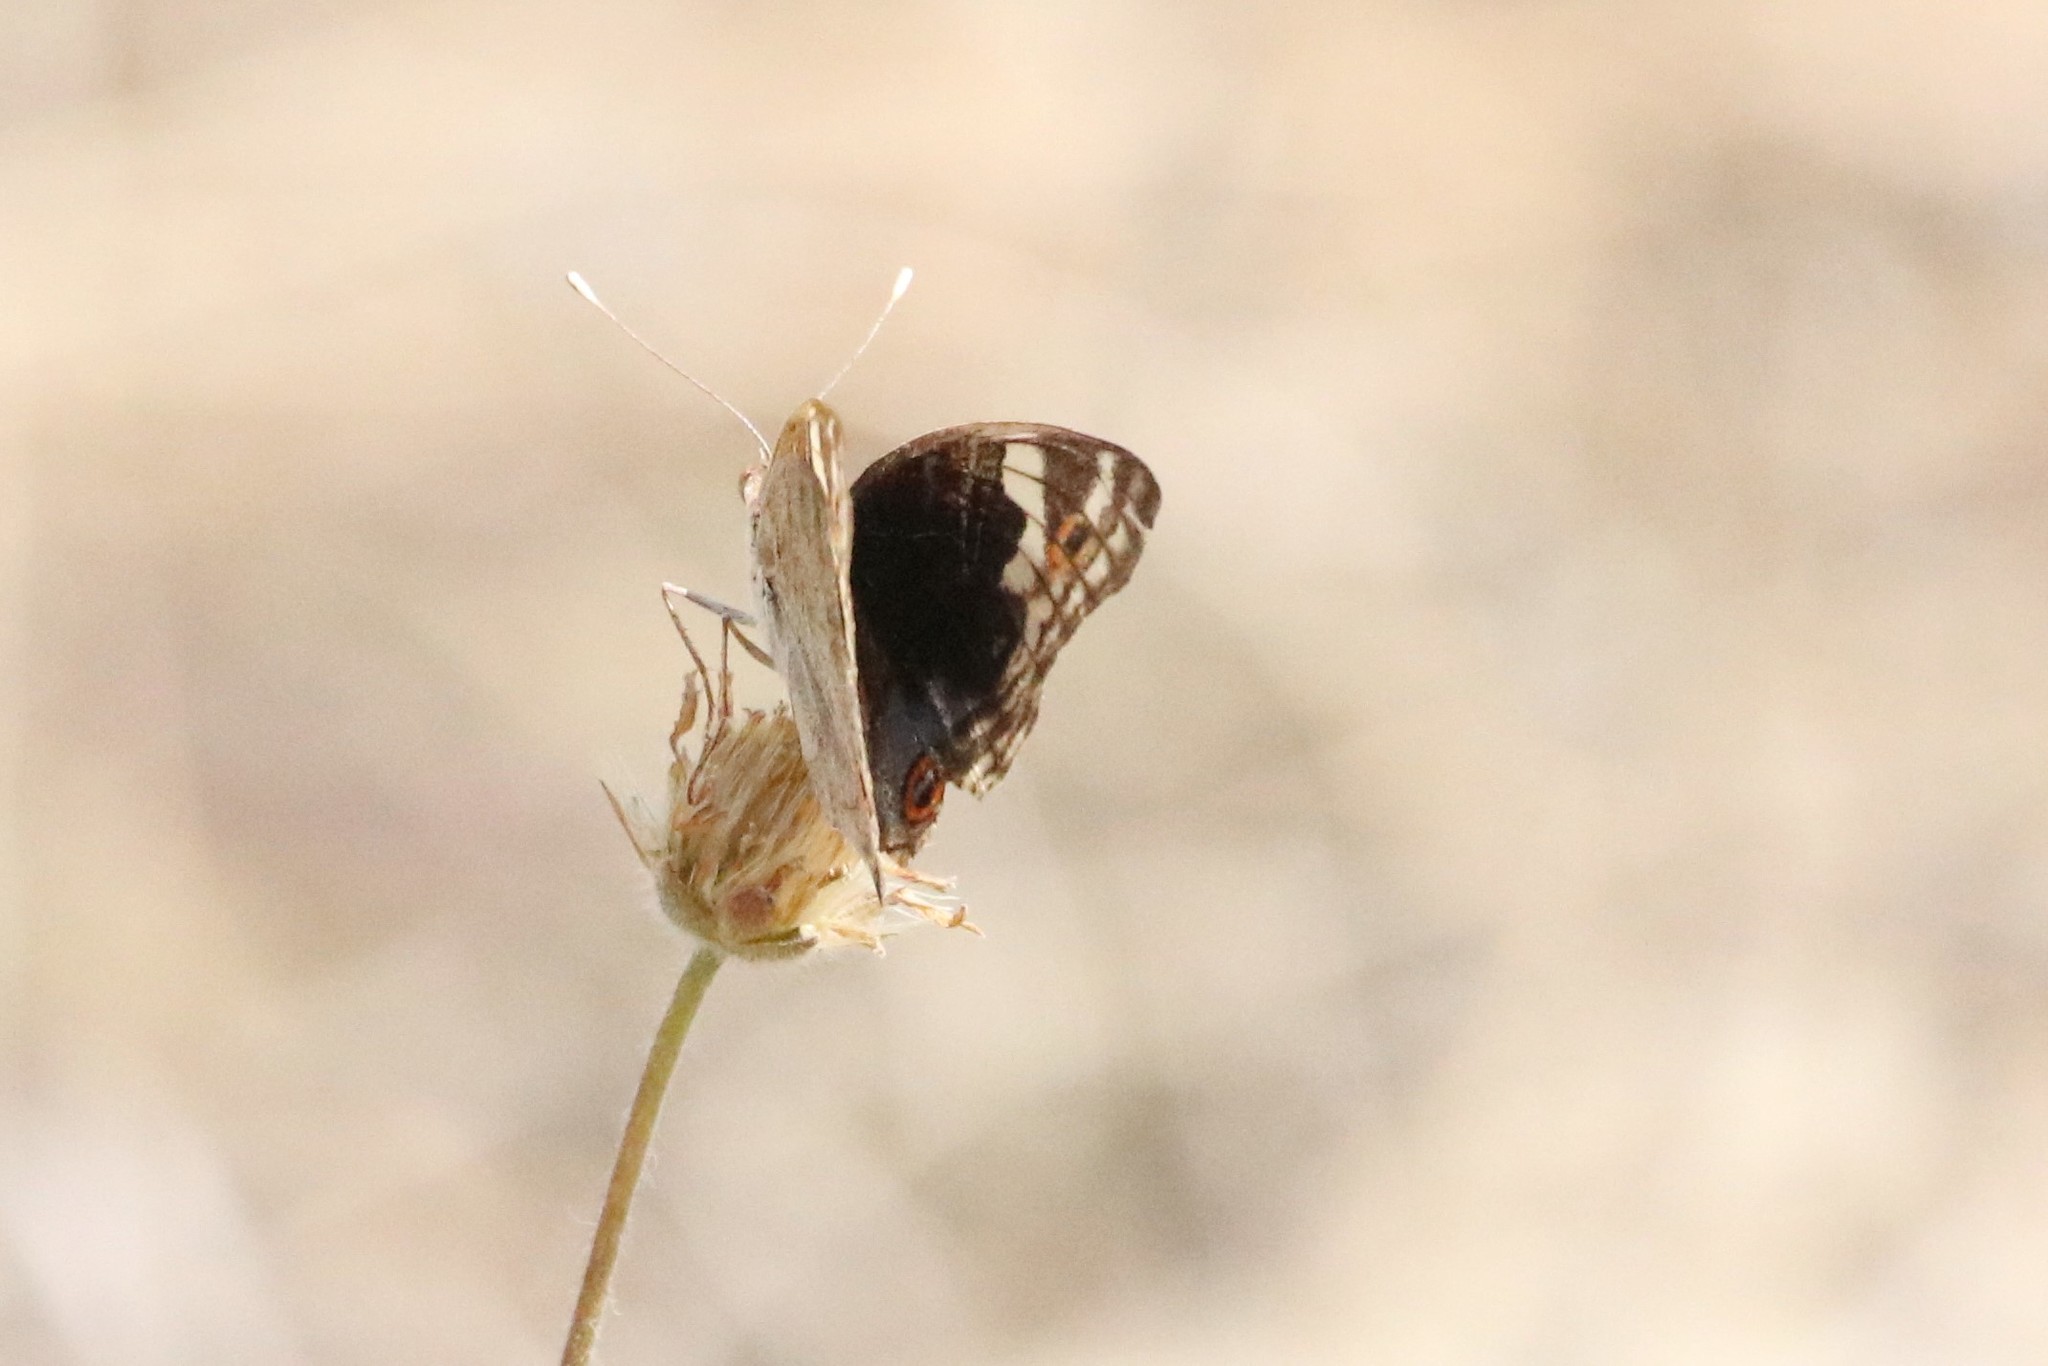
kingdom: Animalia
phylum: Arthropoda
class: Insecta
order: Lepidoptera
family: Nymphalidae
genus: Junonia
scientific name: Junonia orithya
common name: Blue pansy
